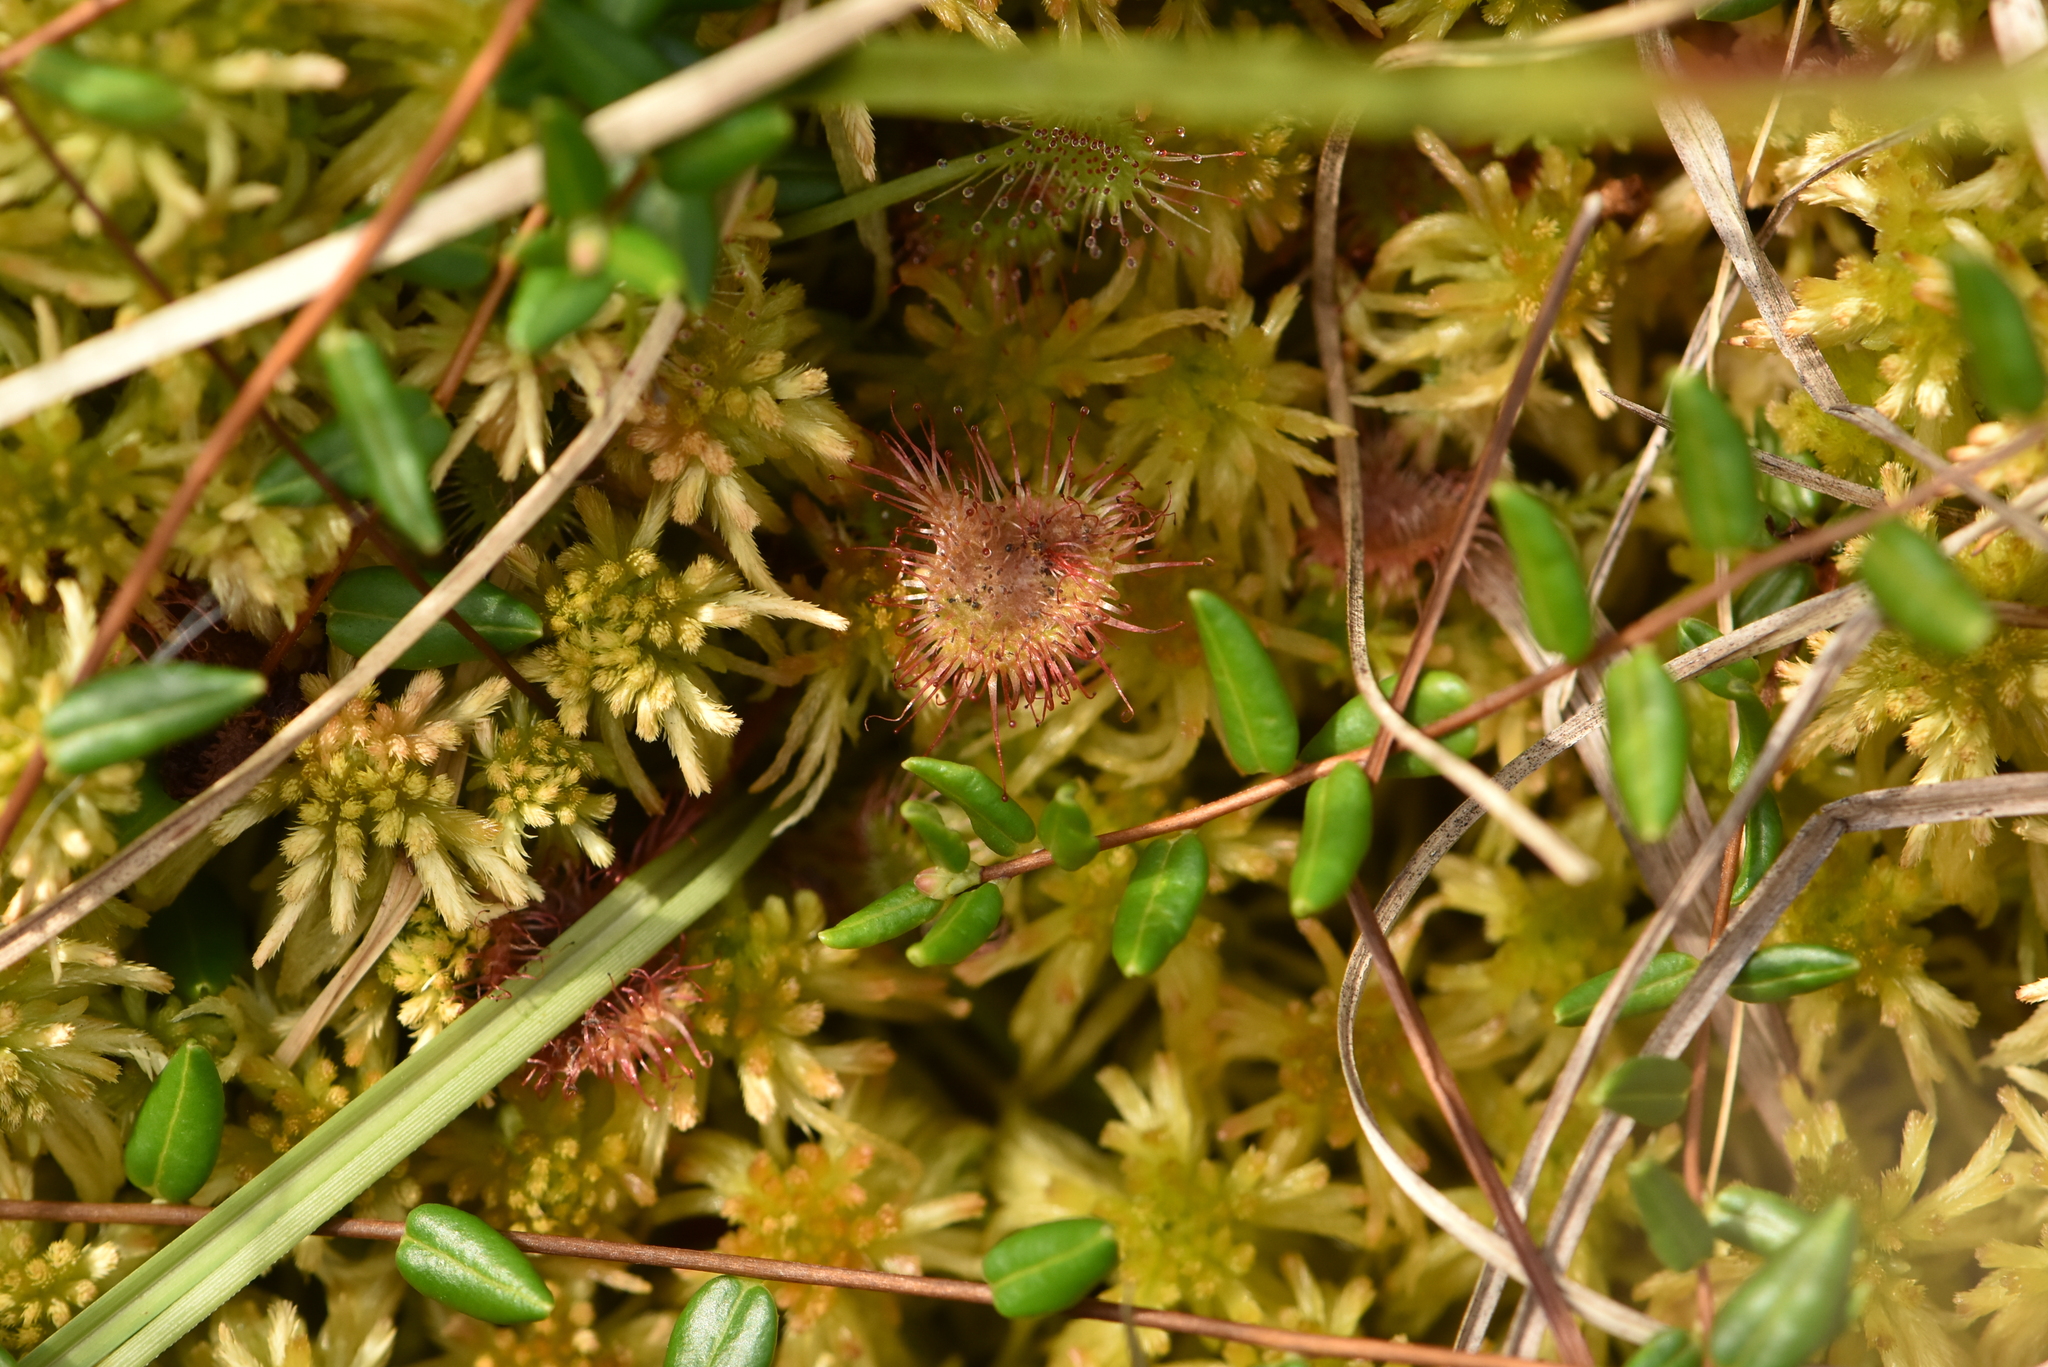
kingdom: Plantae
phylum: Tracheophyta
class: Magnoliopsida
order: Caryophyllales
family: Droseraceae
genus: Drosera
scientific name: Drosera rotundifolia
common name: Round-leaved sundew
